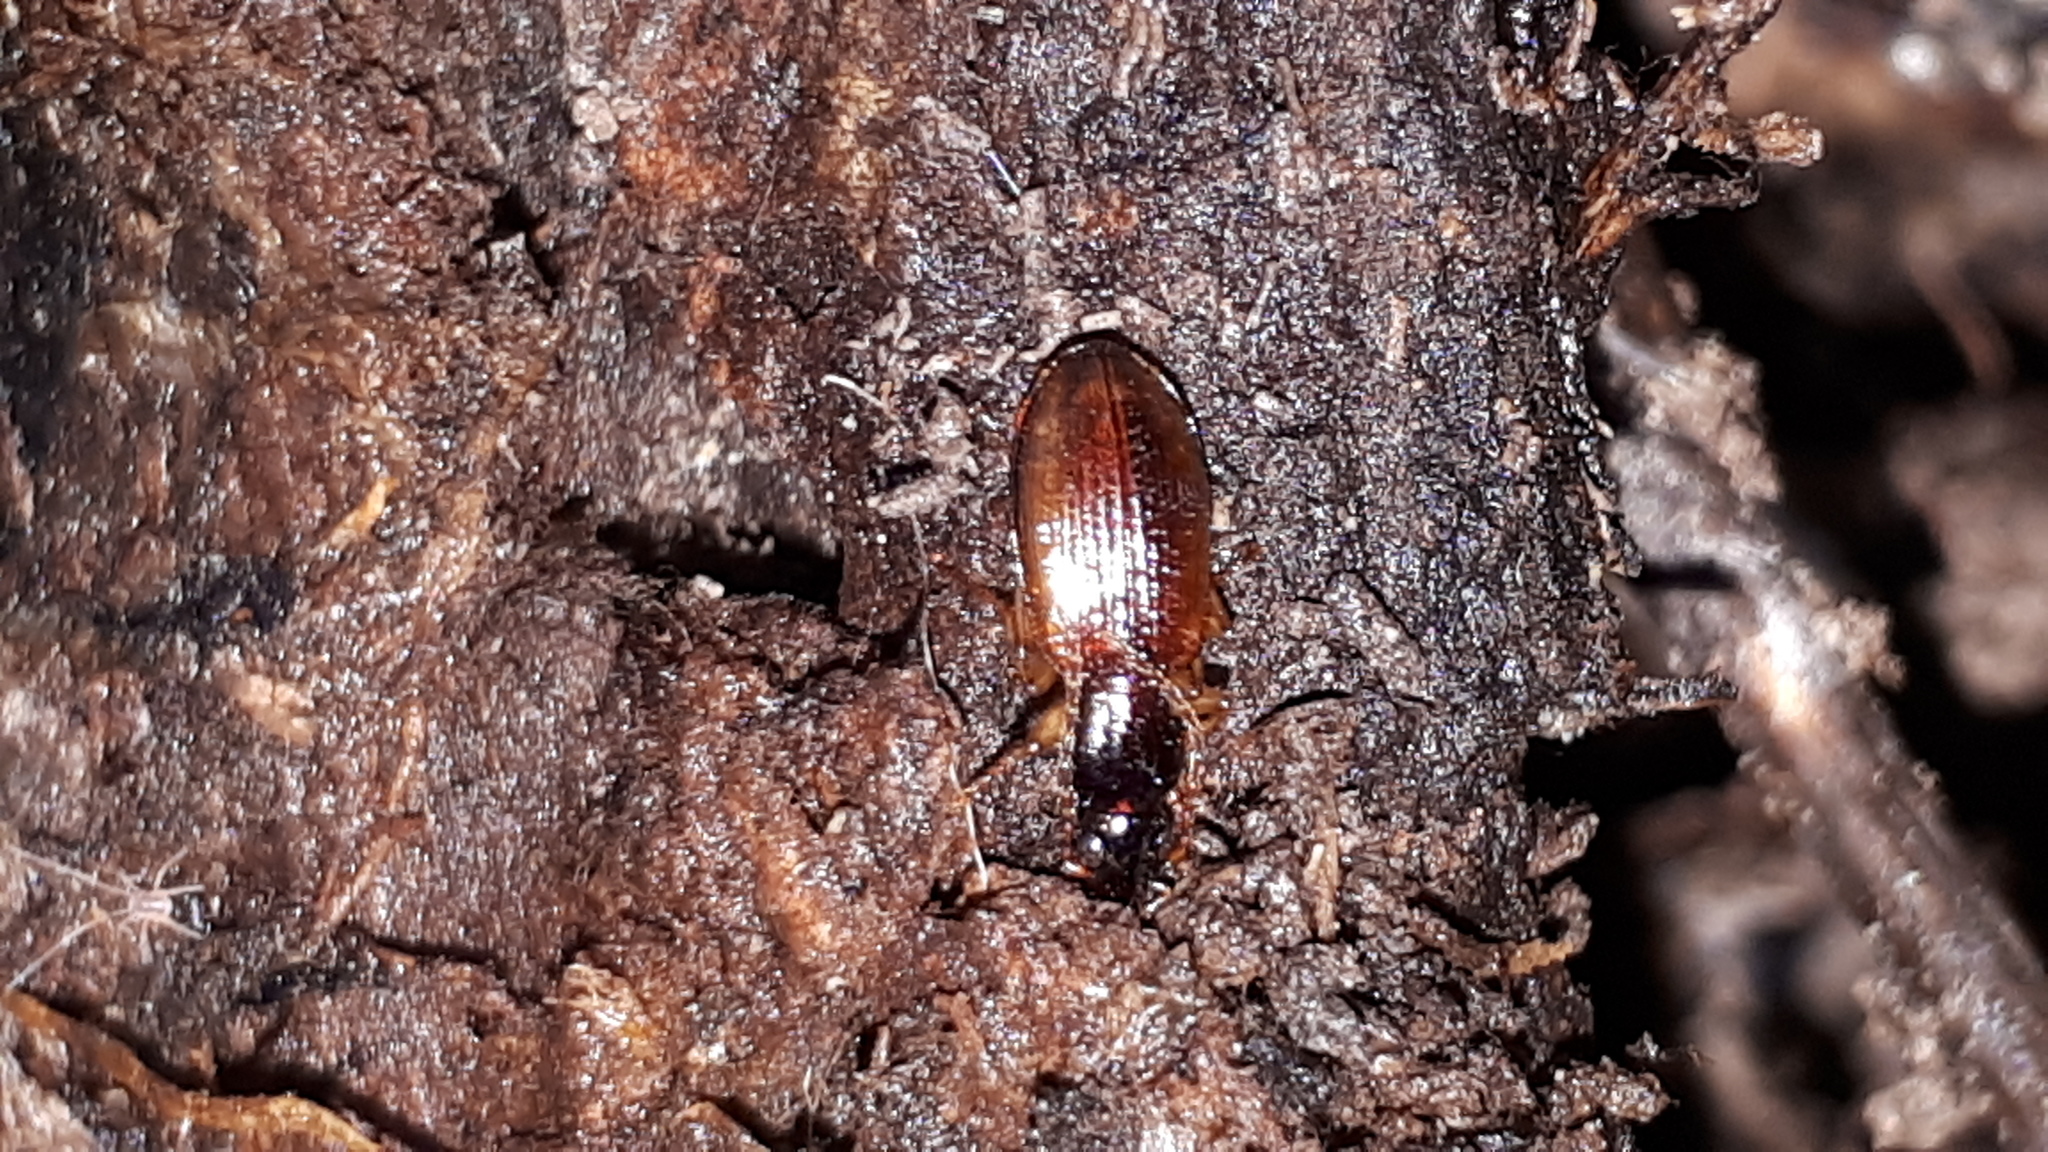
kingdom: Animalia
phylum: Arthropoda
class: Insecta
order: Coleoptera
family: Carabidae
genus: Oxypselaphus
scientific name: Oxypselaphus obscurus
